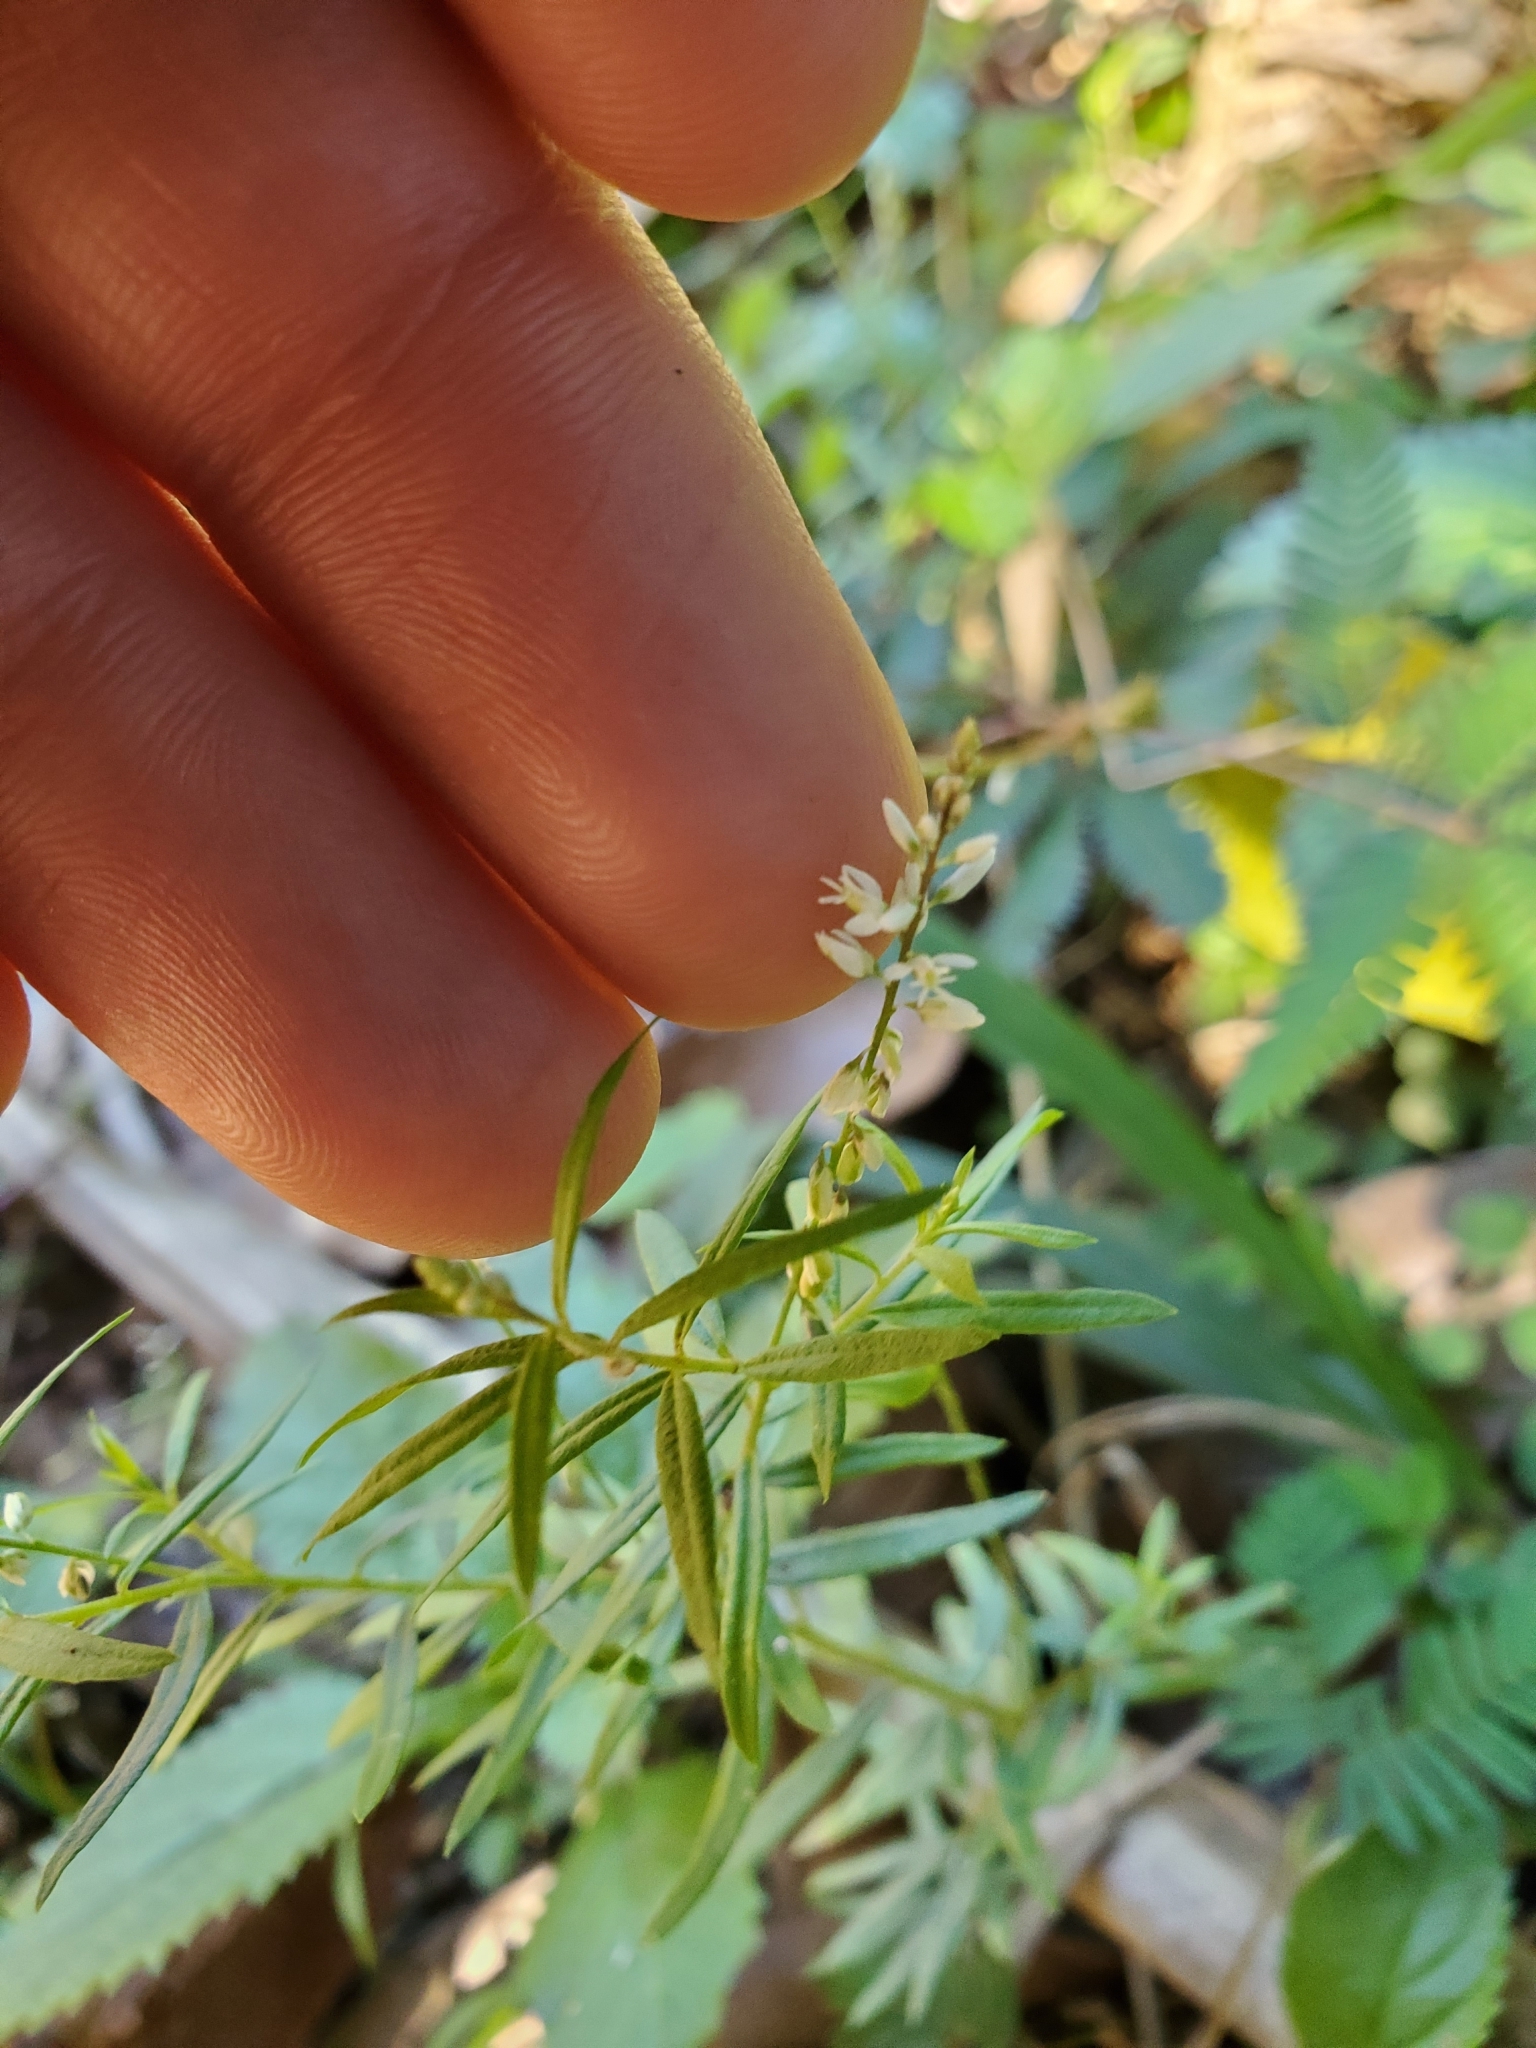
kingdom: Plantae
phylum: Tracheophyta
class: Magnoliopsida
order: Fabales
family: Polygalaceae
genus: Polygala
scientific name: Polygala paniculata
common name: Orosne
